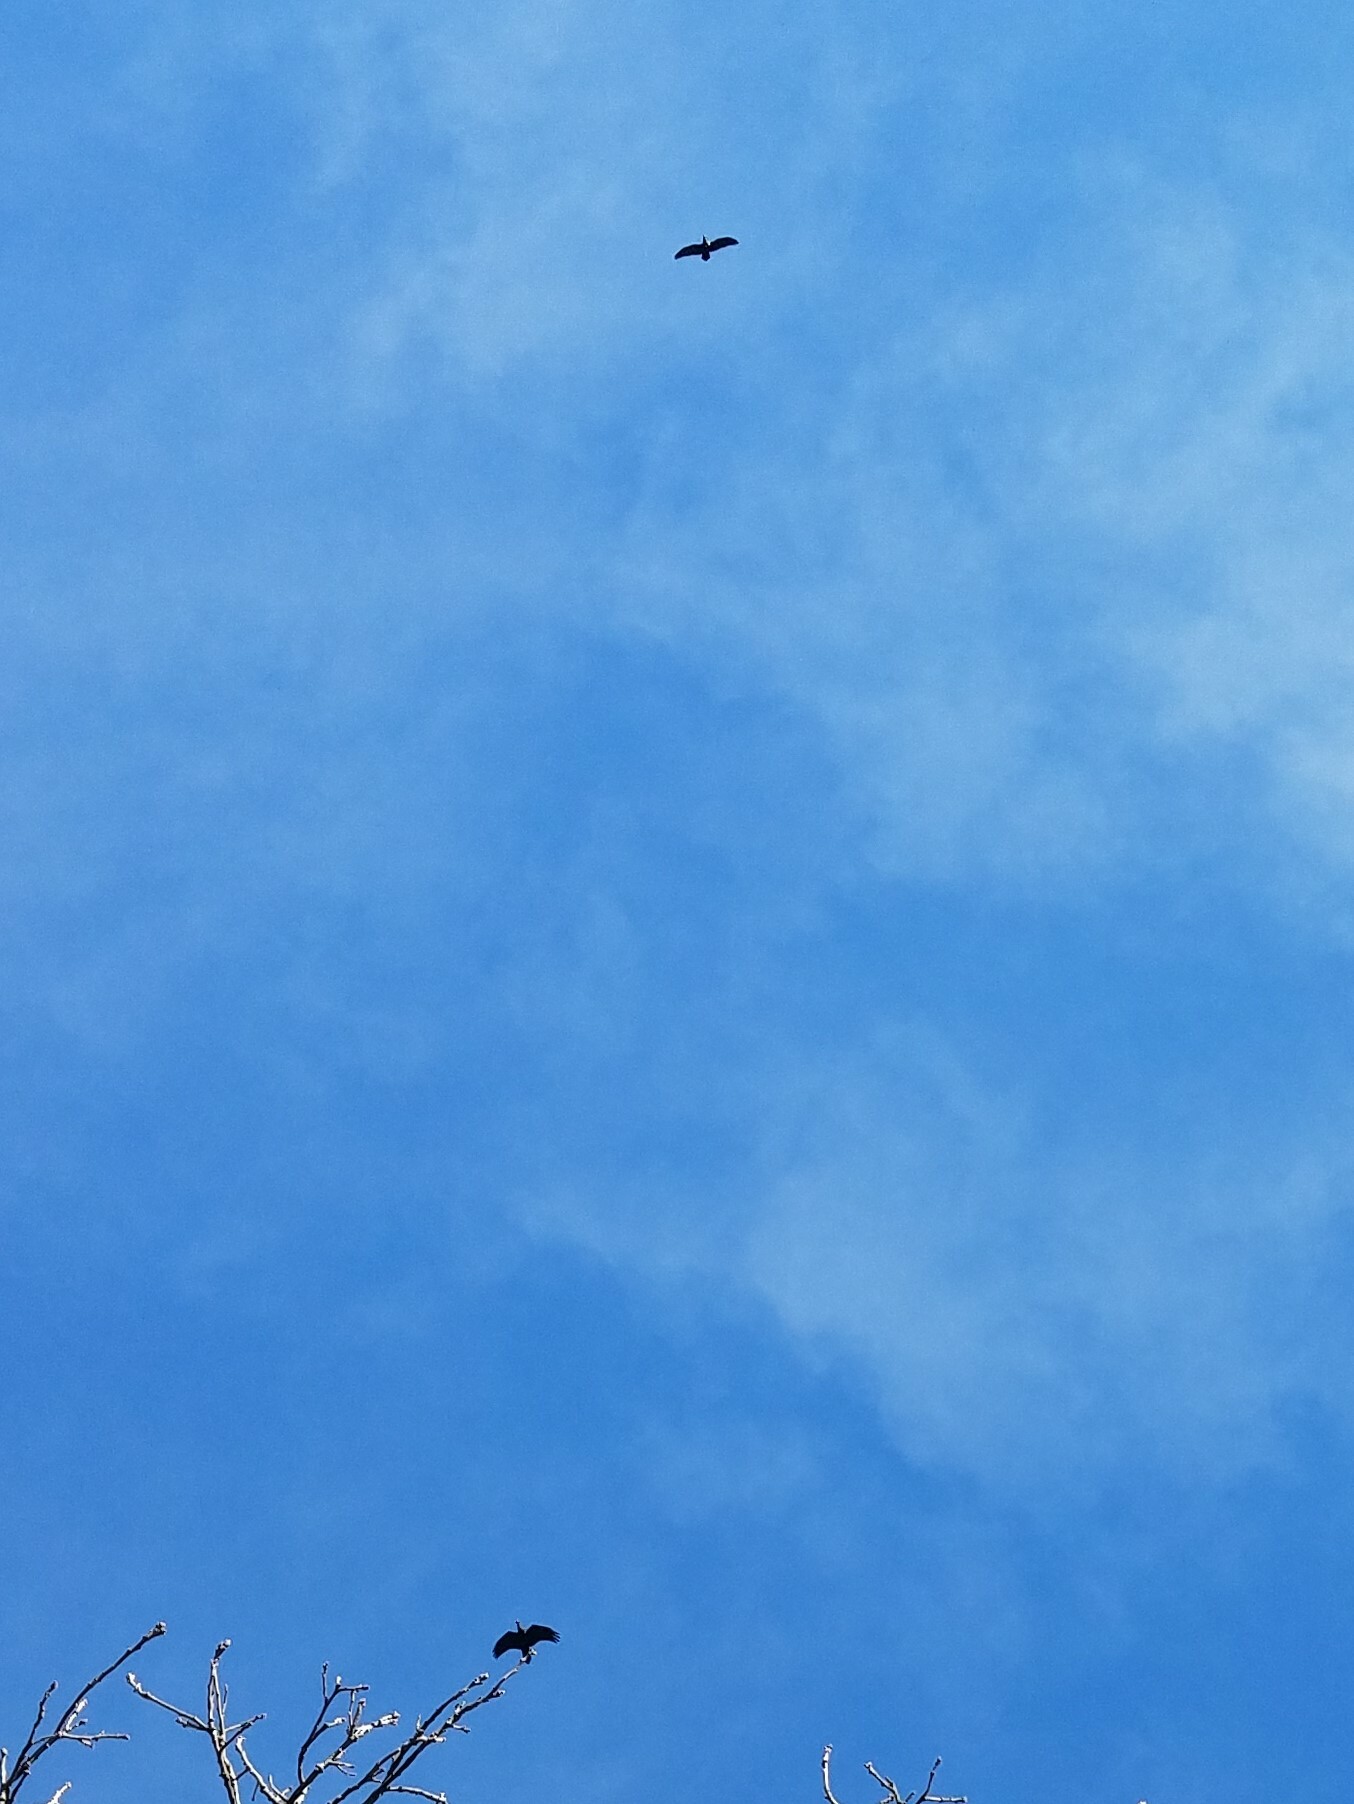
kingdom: Animalia
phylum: Chordata
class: Aves
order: Passeriformes
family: Corvidae
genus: Corvus
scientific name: Corvus corax
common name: Common raven
